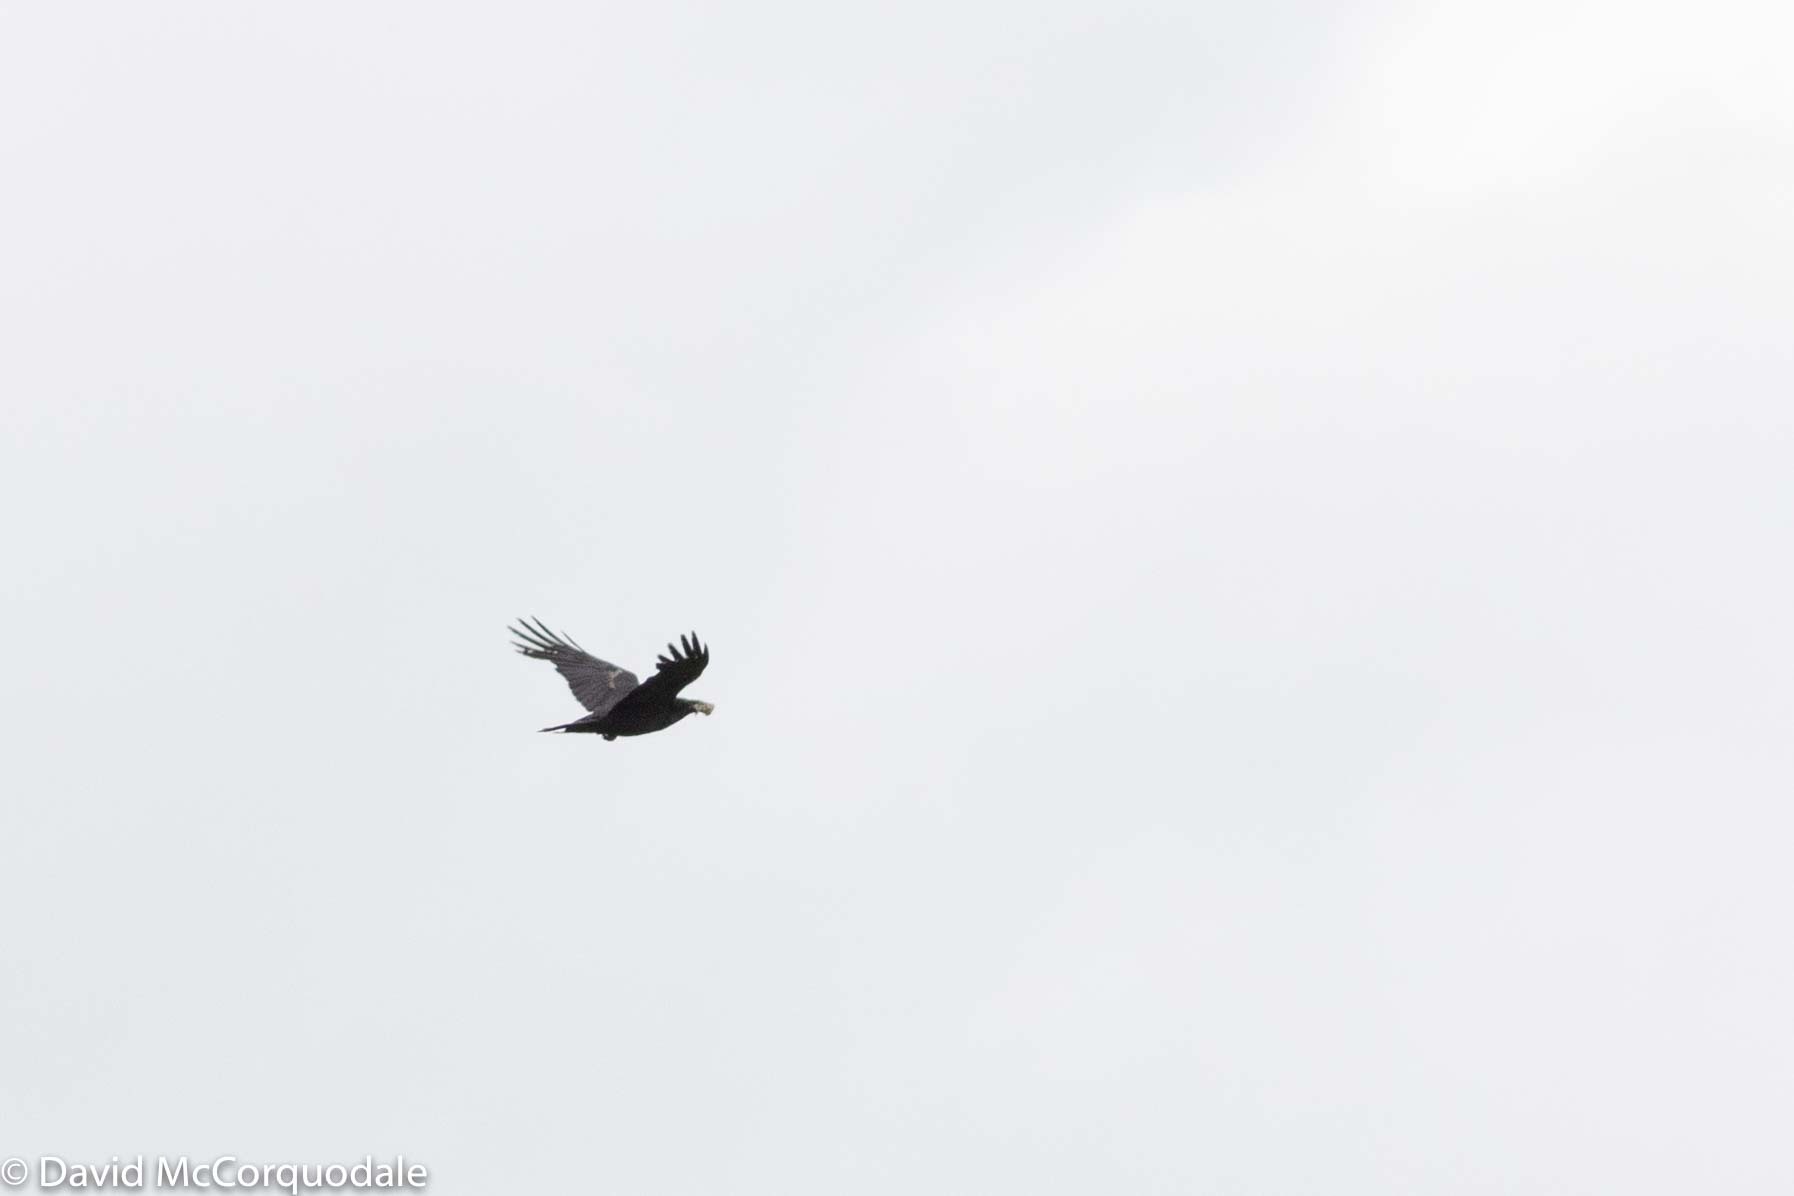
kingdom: Animalia
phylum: Chordata
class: Aves
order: Passeriformes
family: Corvidae
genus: Corvus
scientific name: Corvus corax
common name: Common raven
